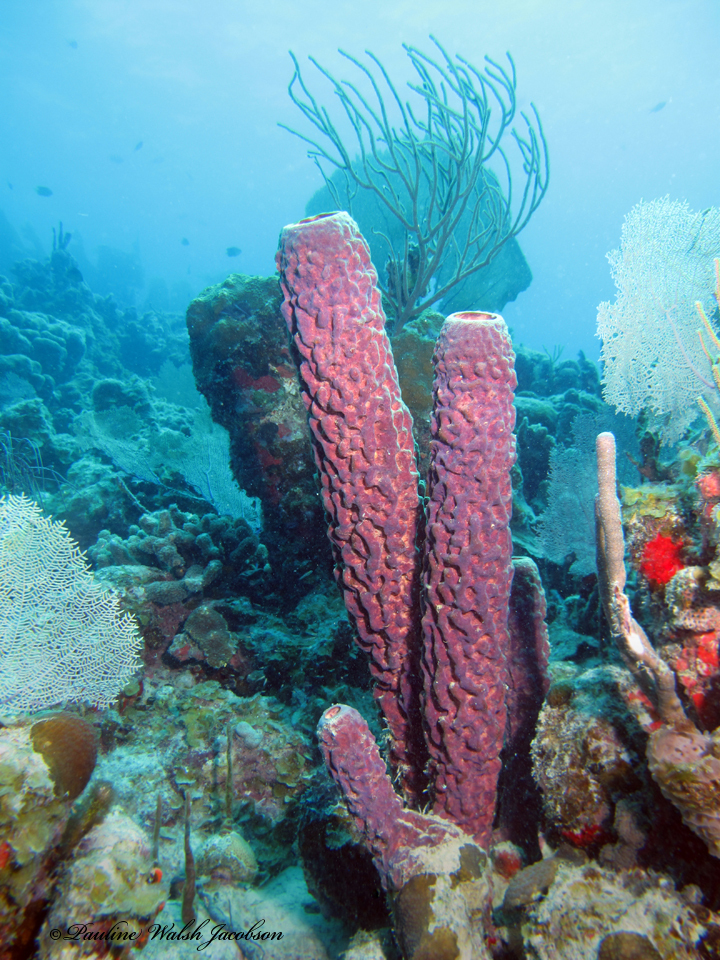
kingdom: Animalia
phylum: Porifera
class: Demospongiae
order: Verongiida
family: Aplysinidae
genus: Aplysina
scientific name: Aplysina archeri
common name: Stove-pipe sponge
